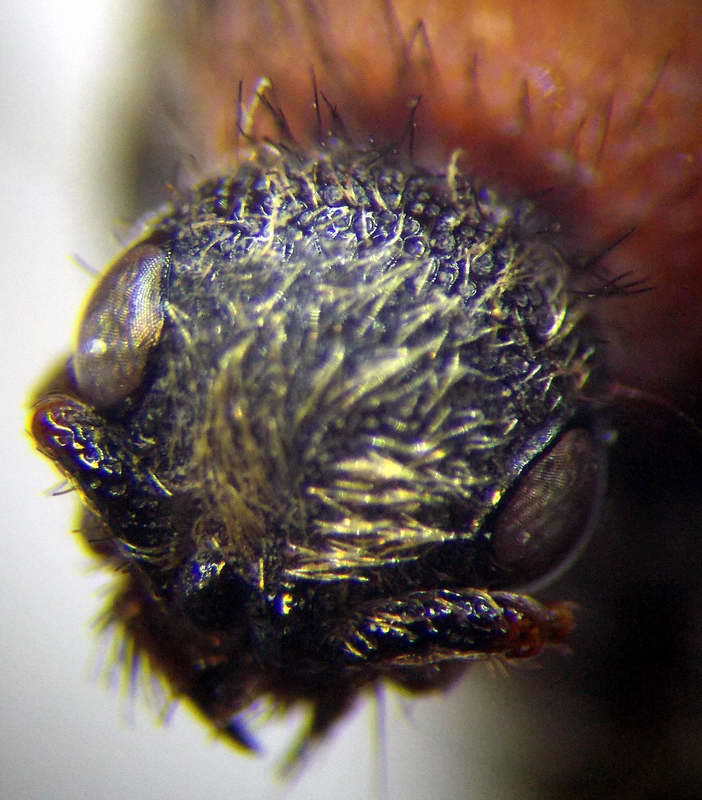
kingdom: Animalia
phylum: Arthropoda
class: Insecta
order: Hymenoptera
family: Mutillidae
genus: Dasylabris
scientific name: Dasylabris maura
